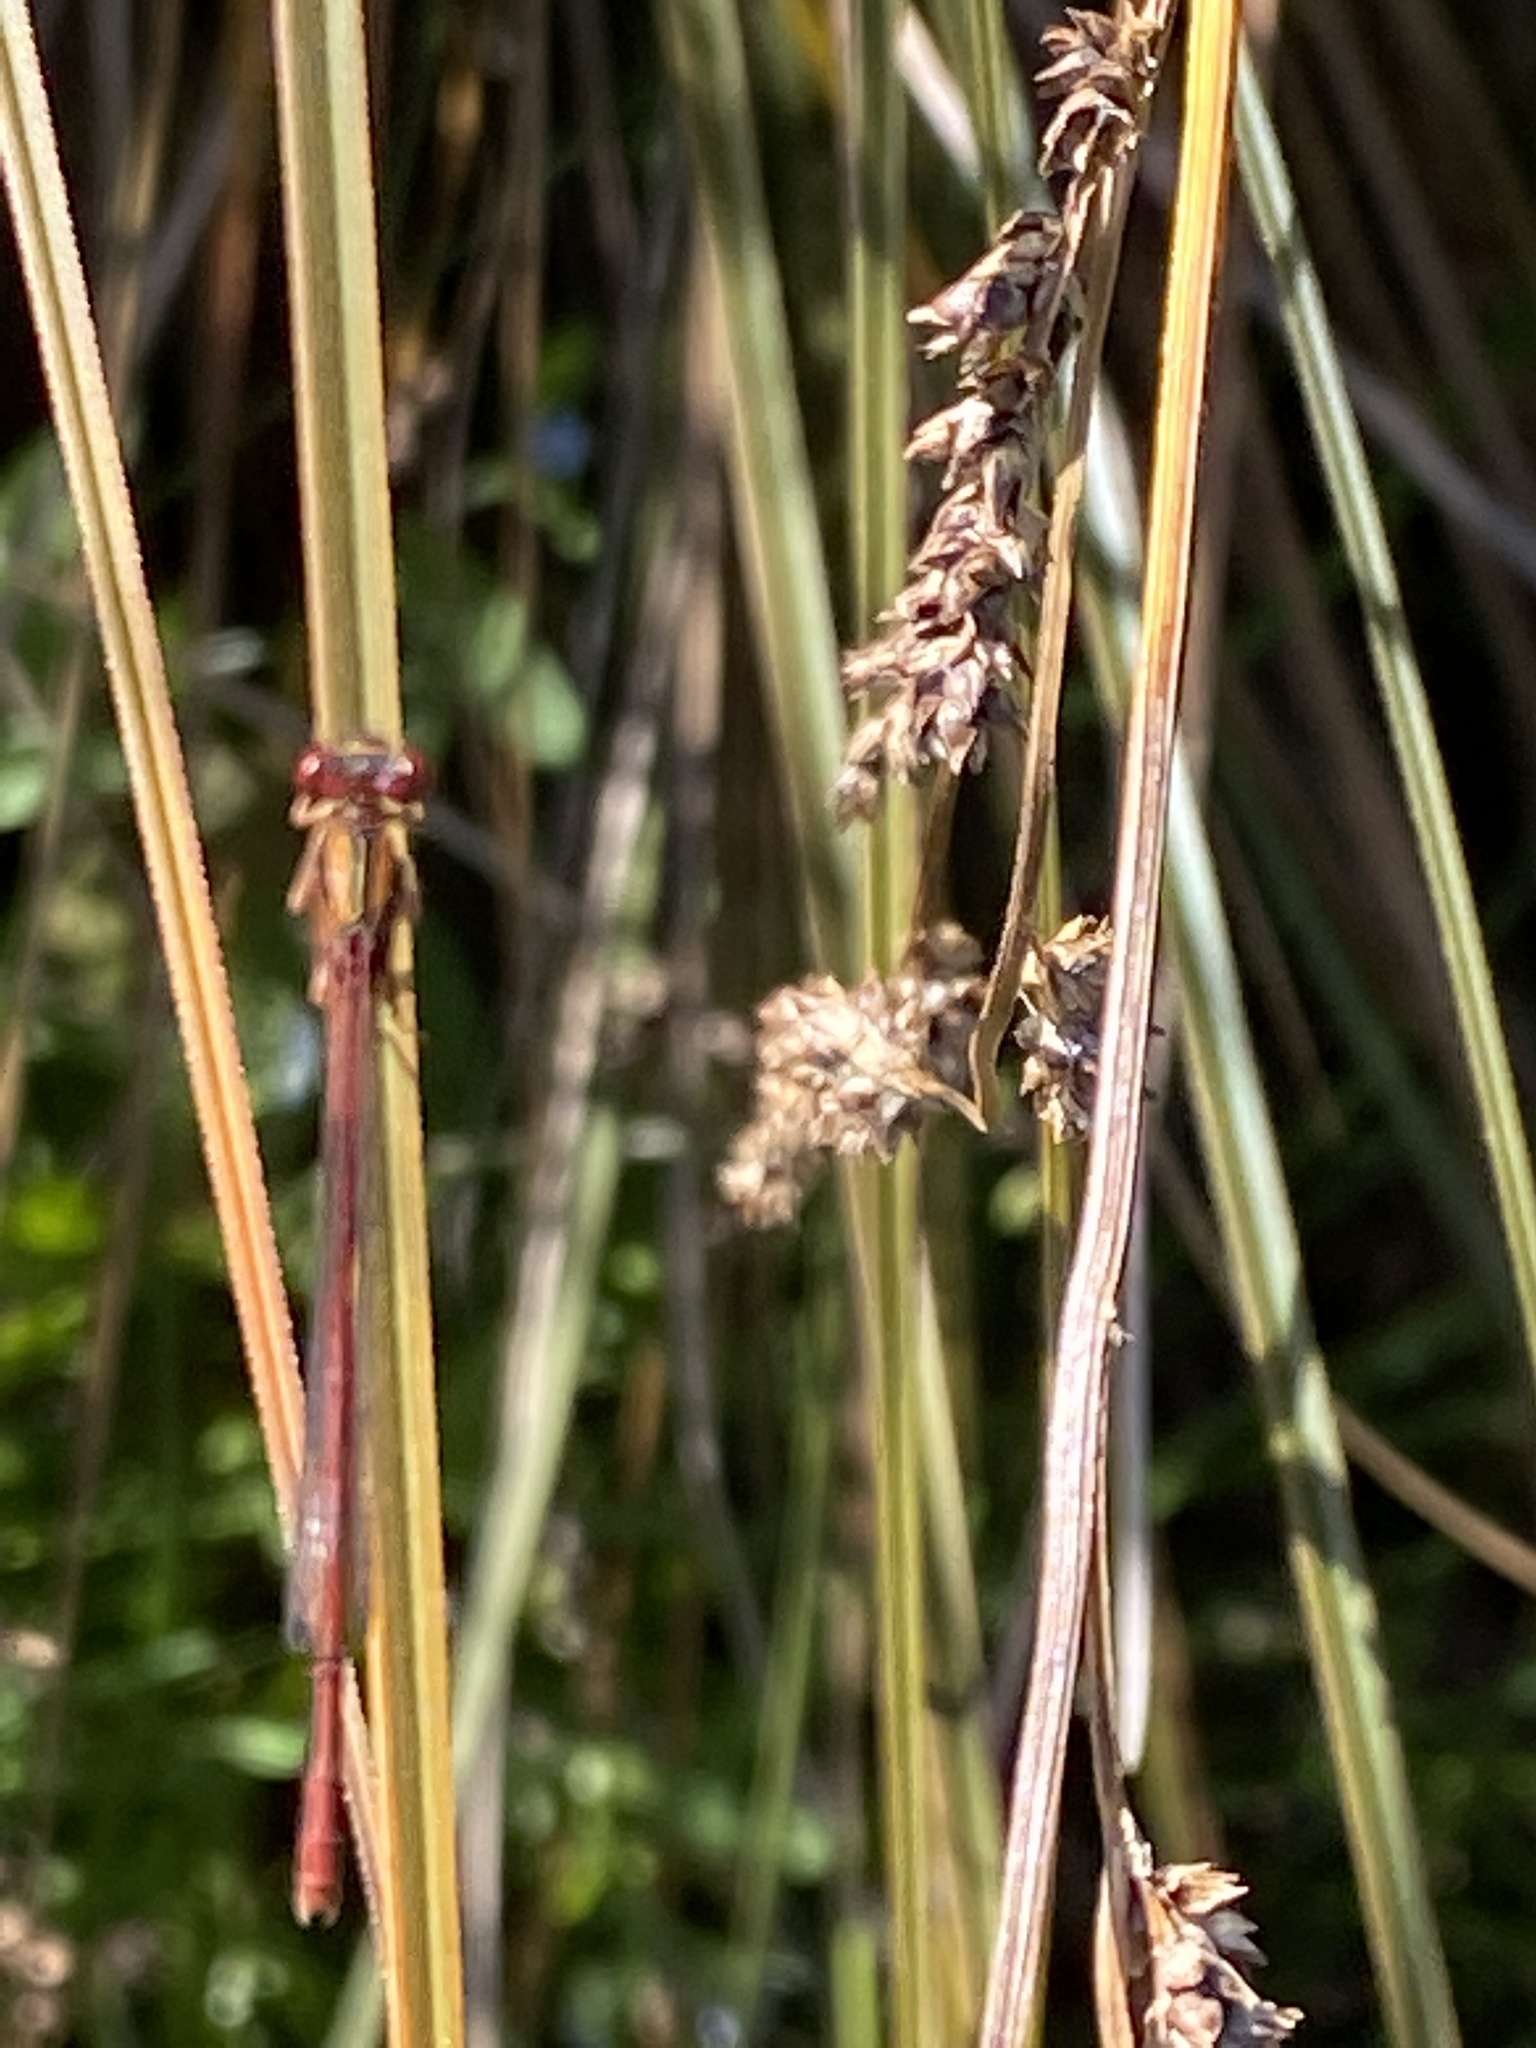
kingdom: Animalia
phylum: Arthropoda
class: Insecta
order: Odonata
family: Coenagrionidae
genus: Xanthocnemis
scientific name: Xanthocnemis zealandica
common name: Common redcoat damselfly
